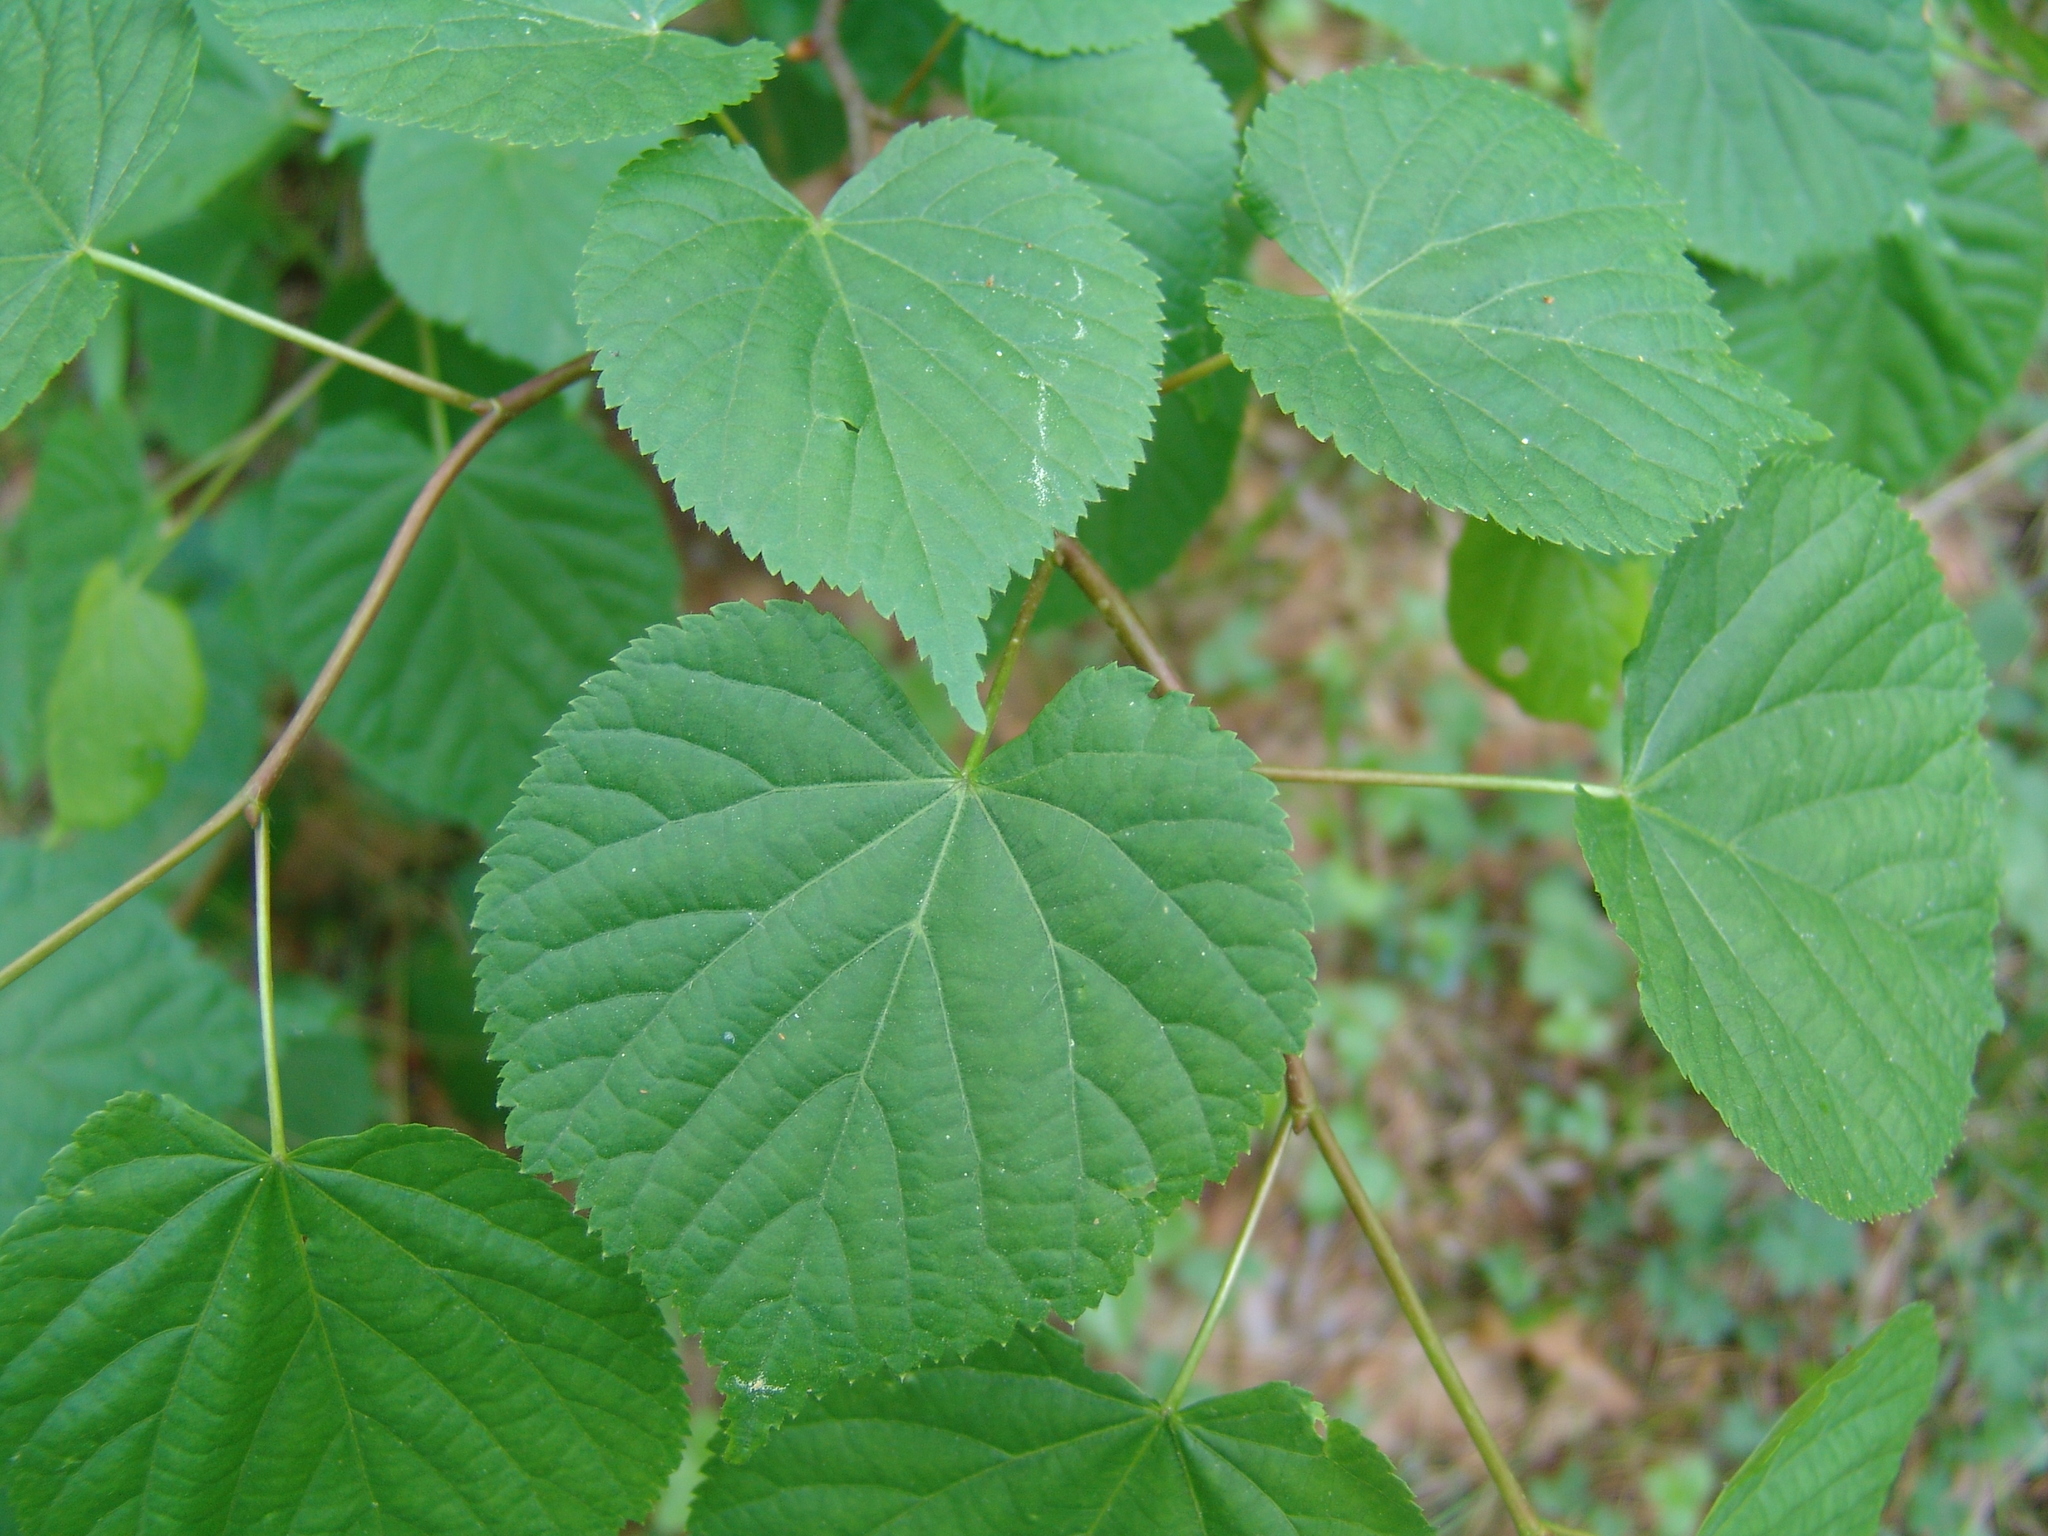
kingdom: Plantae
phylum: Tracheophyta
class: Magnoliopsida
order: Malvales
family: Malvaceae
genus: Tilia
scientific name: Tilia cordata
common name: Small-leaved lime
